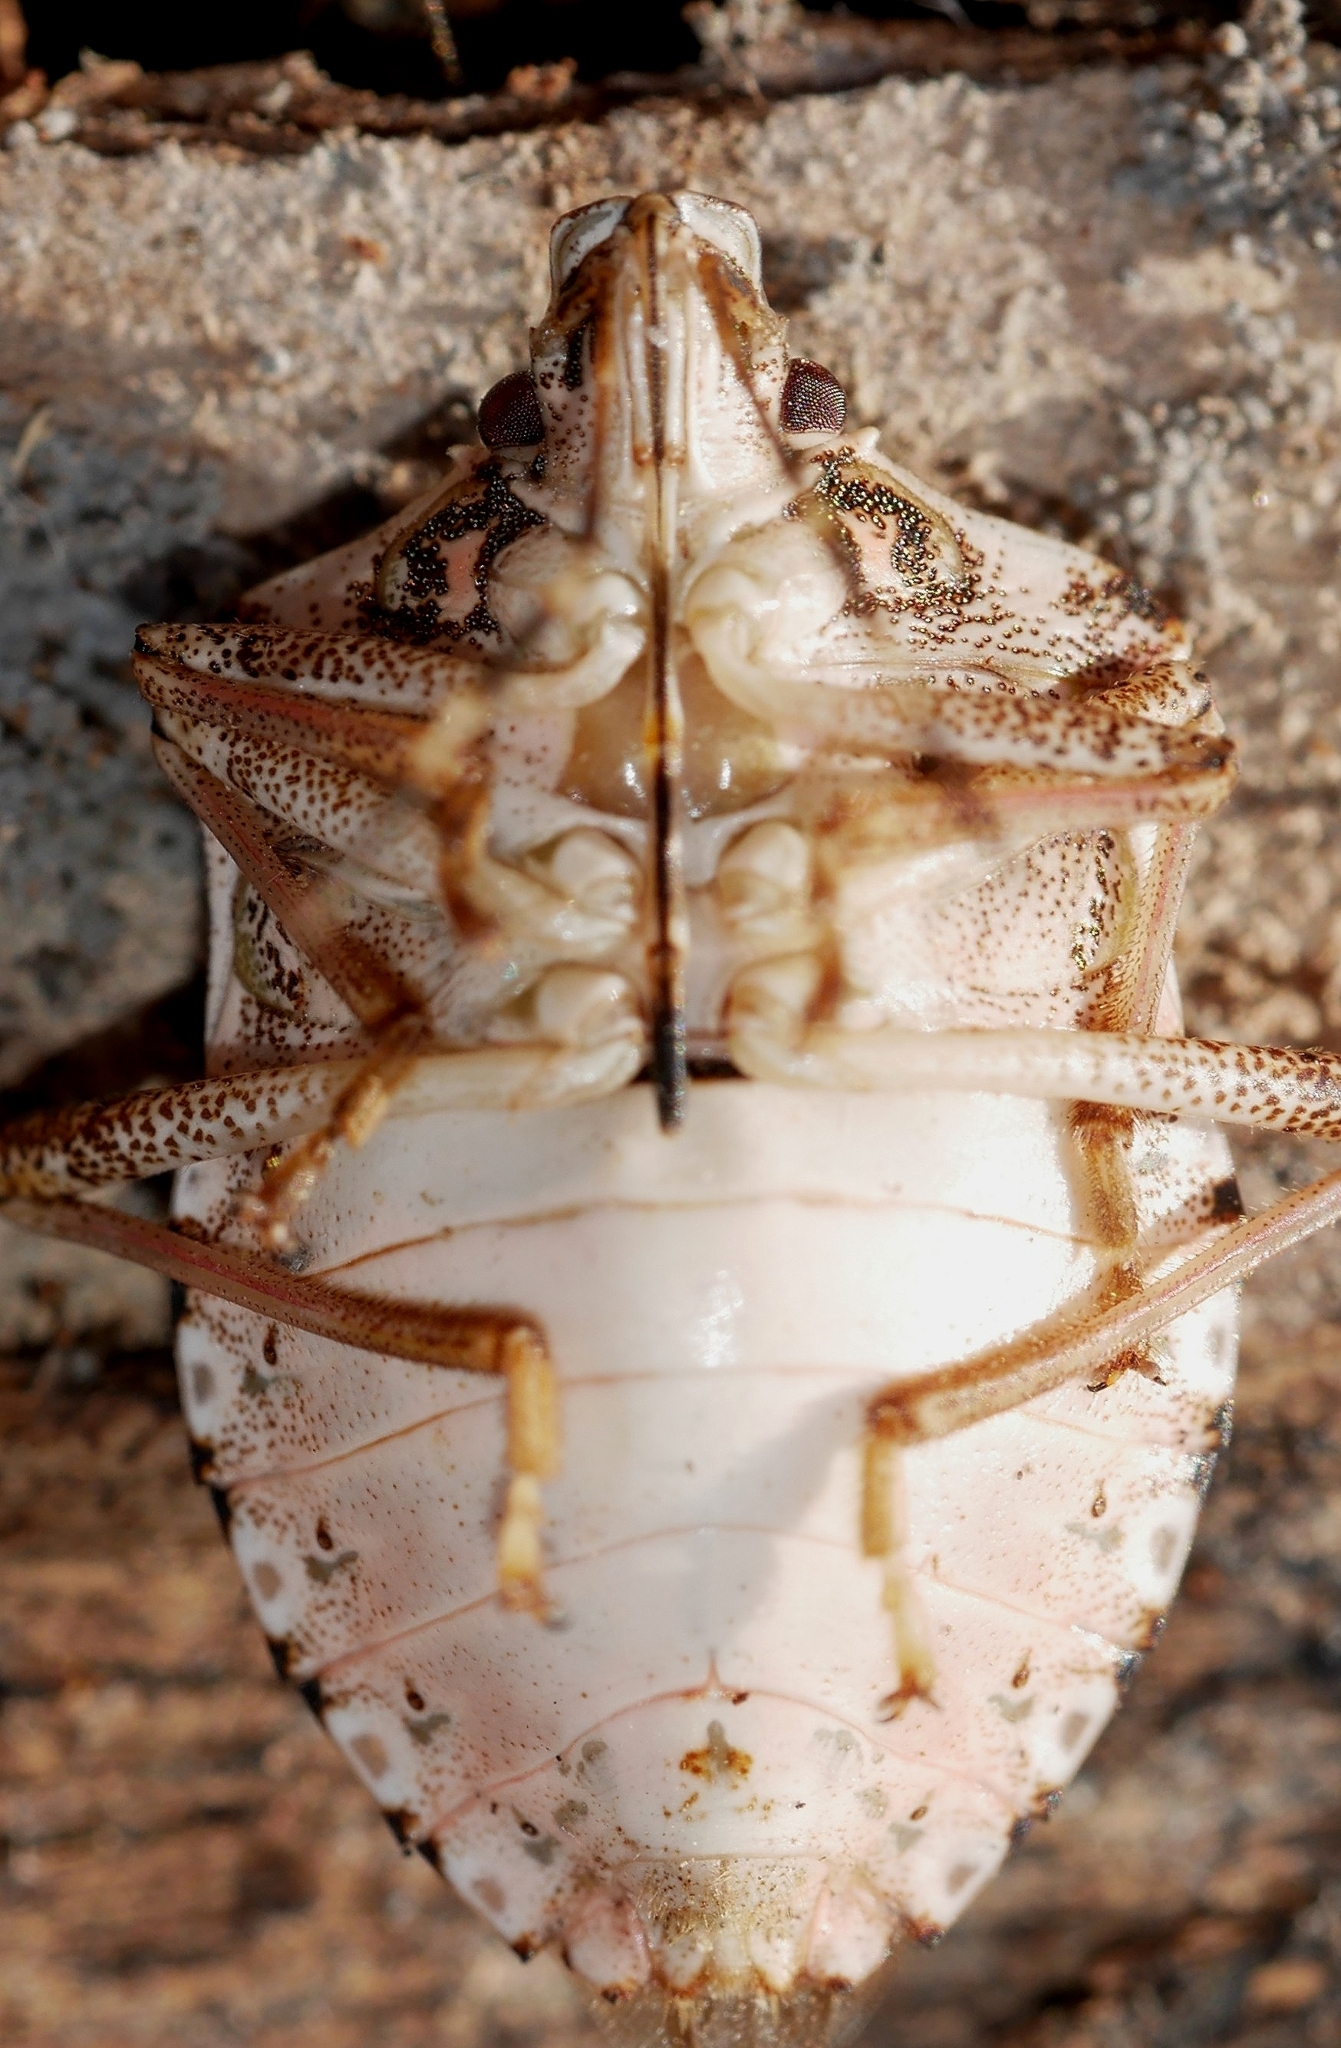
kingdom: Animalia
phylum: Arthropoda
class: Insecta
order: Hemiptera
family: Pentatomidae
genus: Halyomorpha
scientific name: Halyomorpha halys
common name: Brown marmorated stink bug
